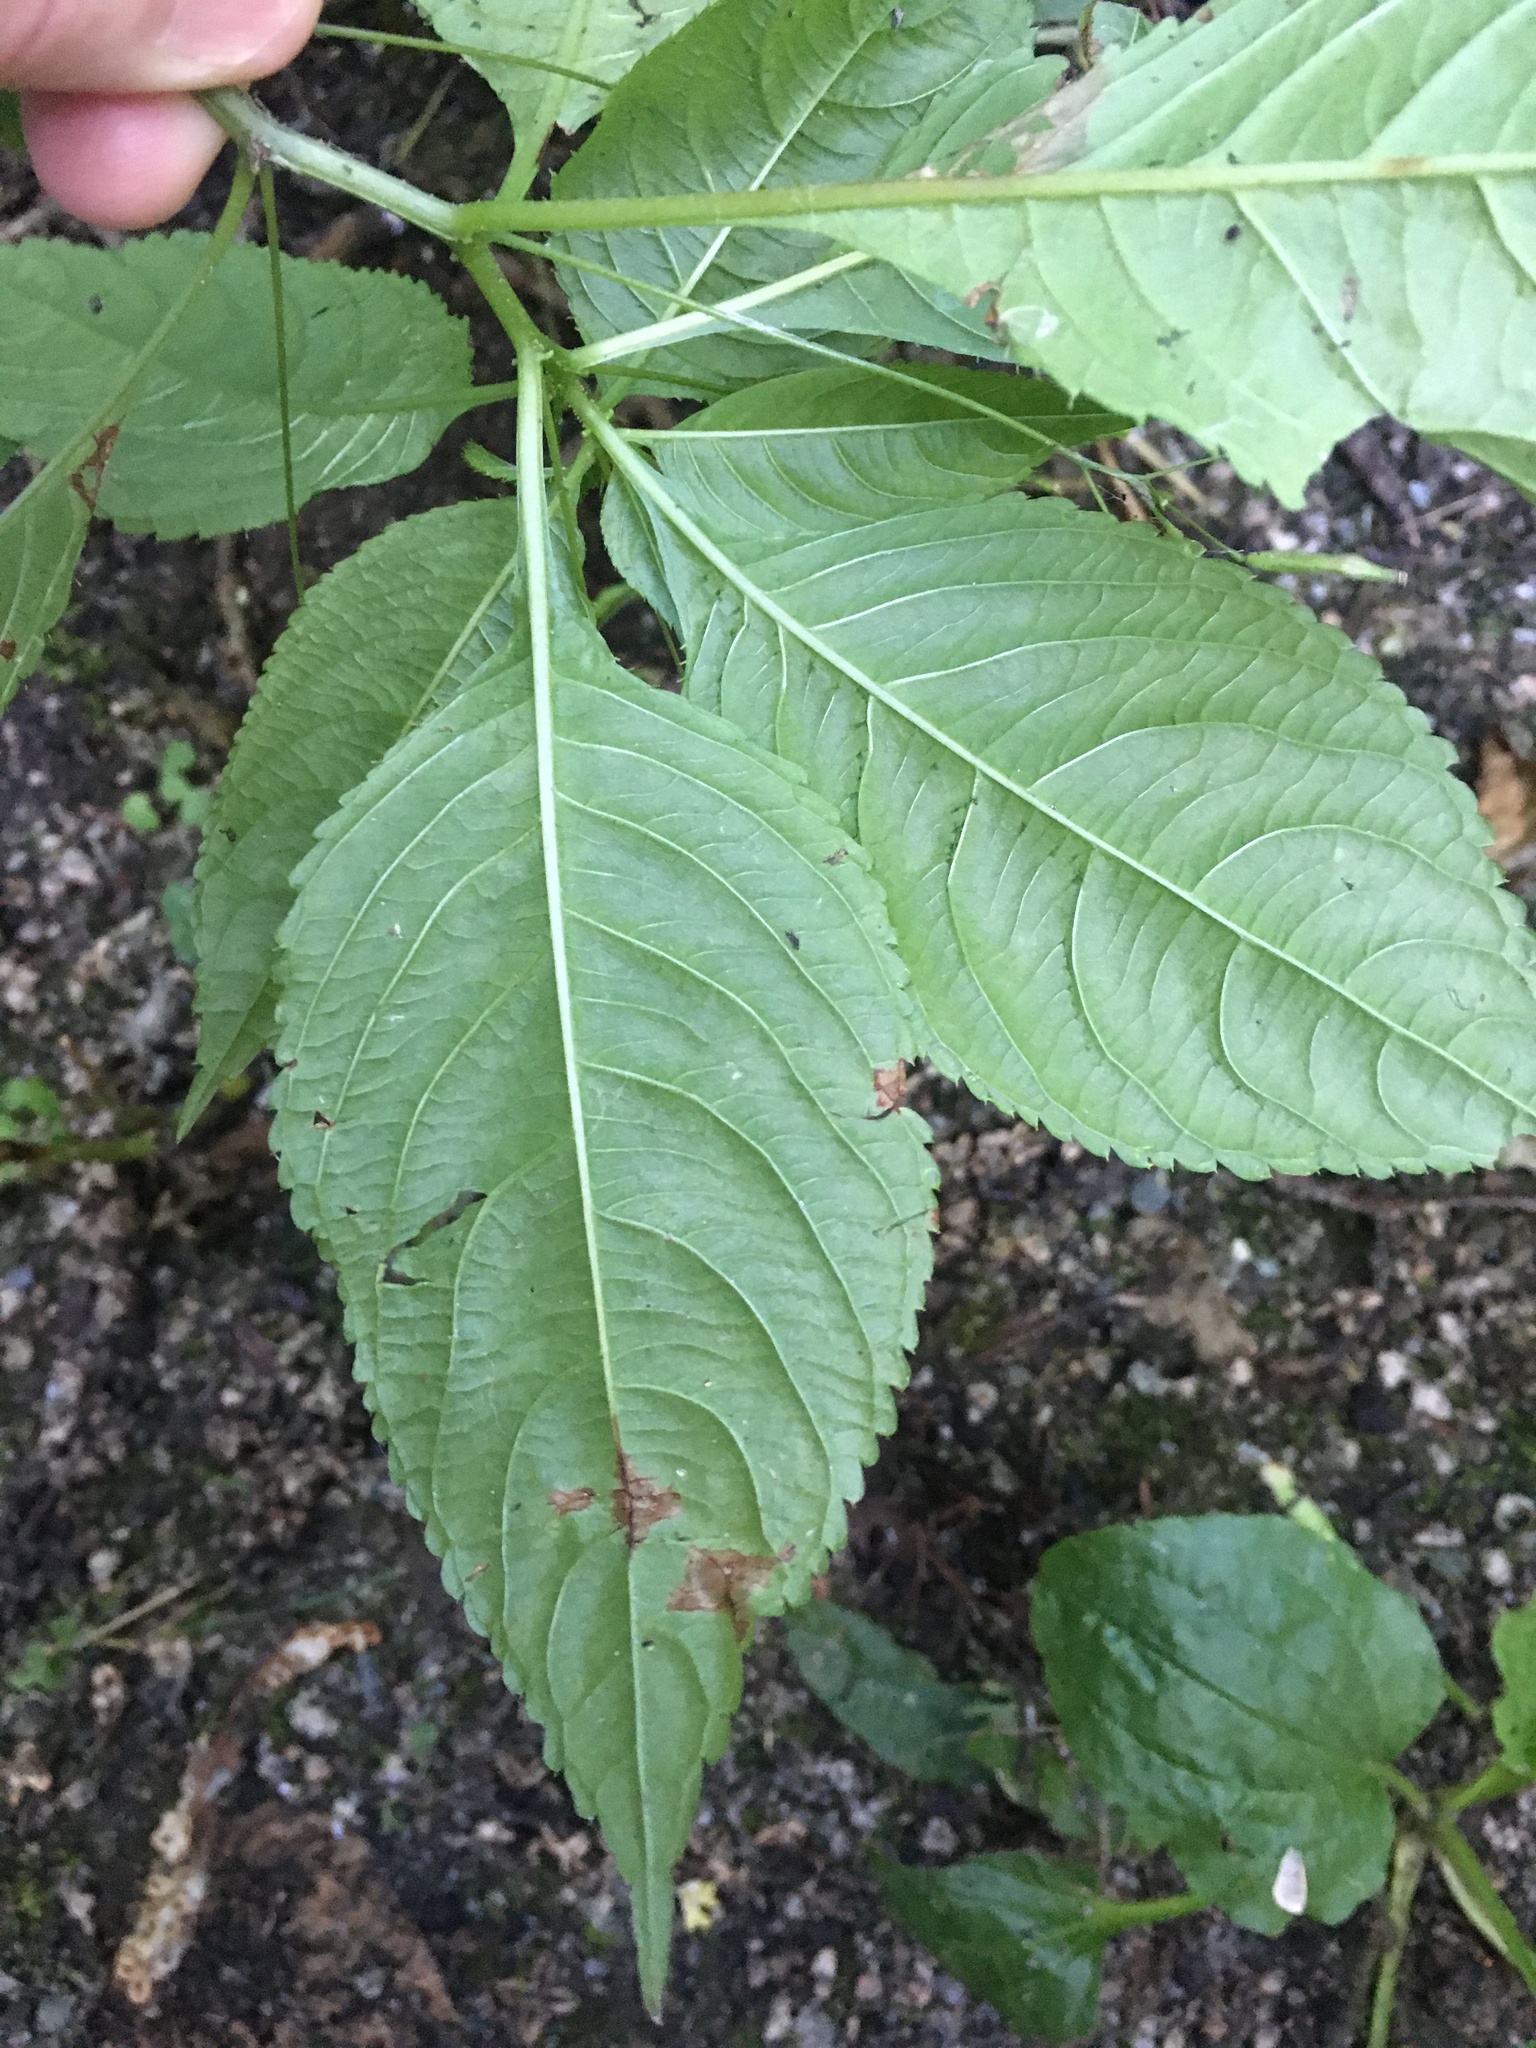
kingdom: Plantae
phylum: Tracheophyta
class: Magnoliopsida
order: Ericales
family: Balsaminaceae
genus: Impatiens
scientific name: Impatiens parviflora
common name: Small balsam
